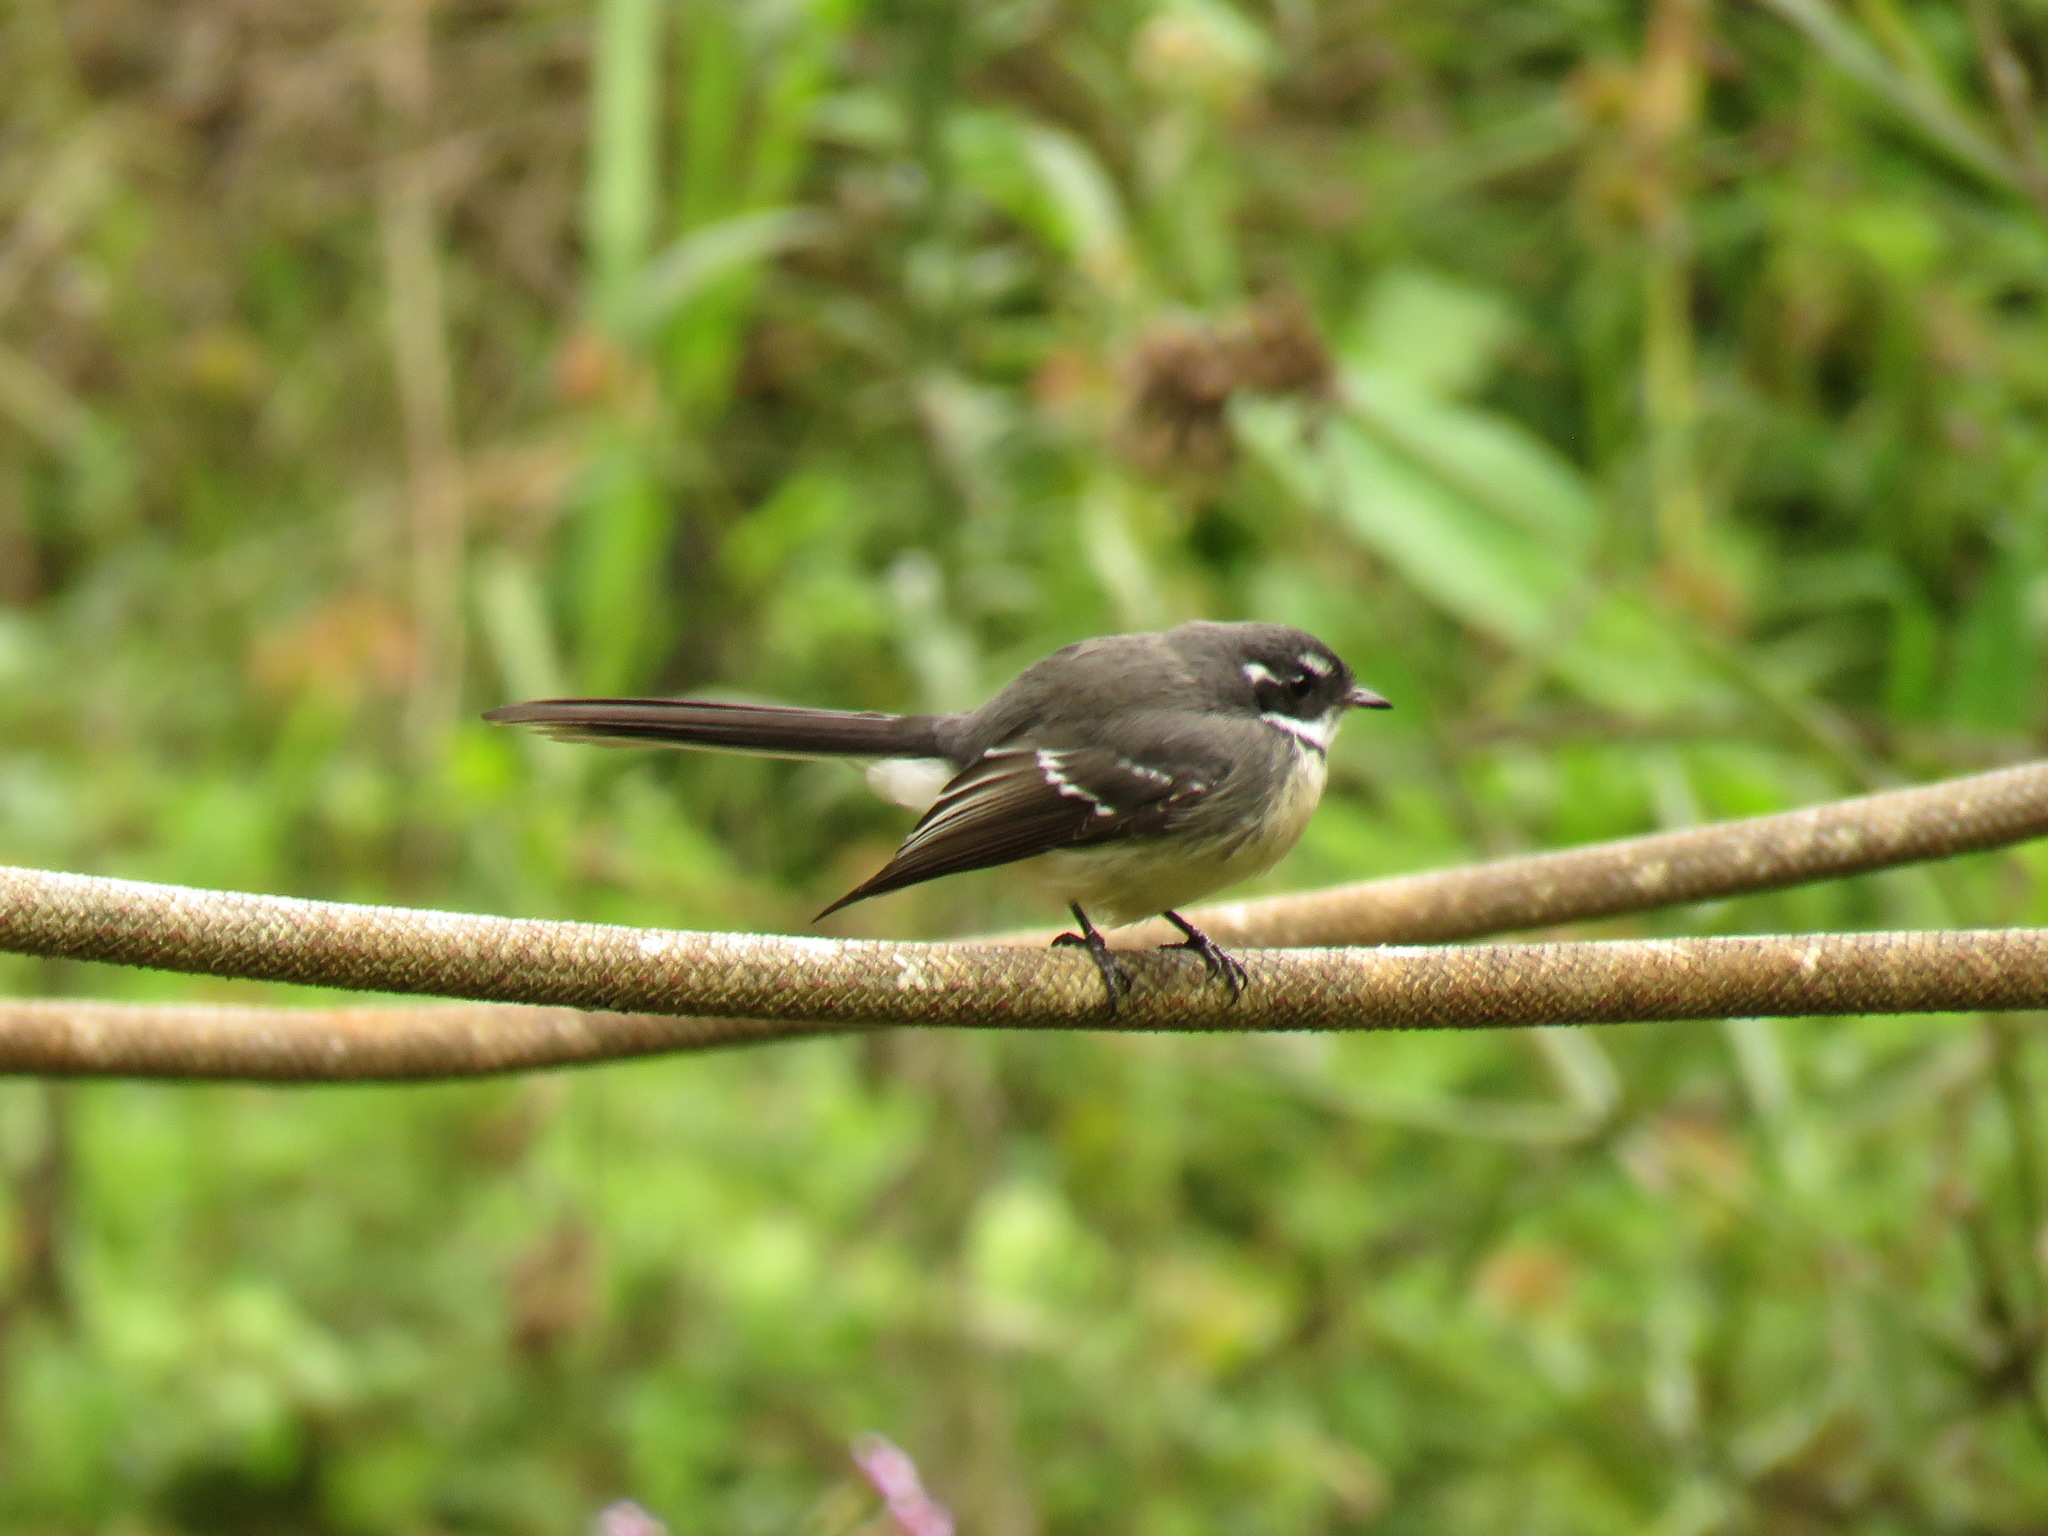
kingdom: Animalia
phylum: Chordata
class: Aves
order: Passeriformes
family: Rhipiduridae
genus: Rhipidura
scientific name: Rhipidura albiscapa
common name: Grey fantail
